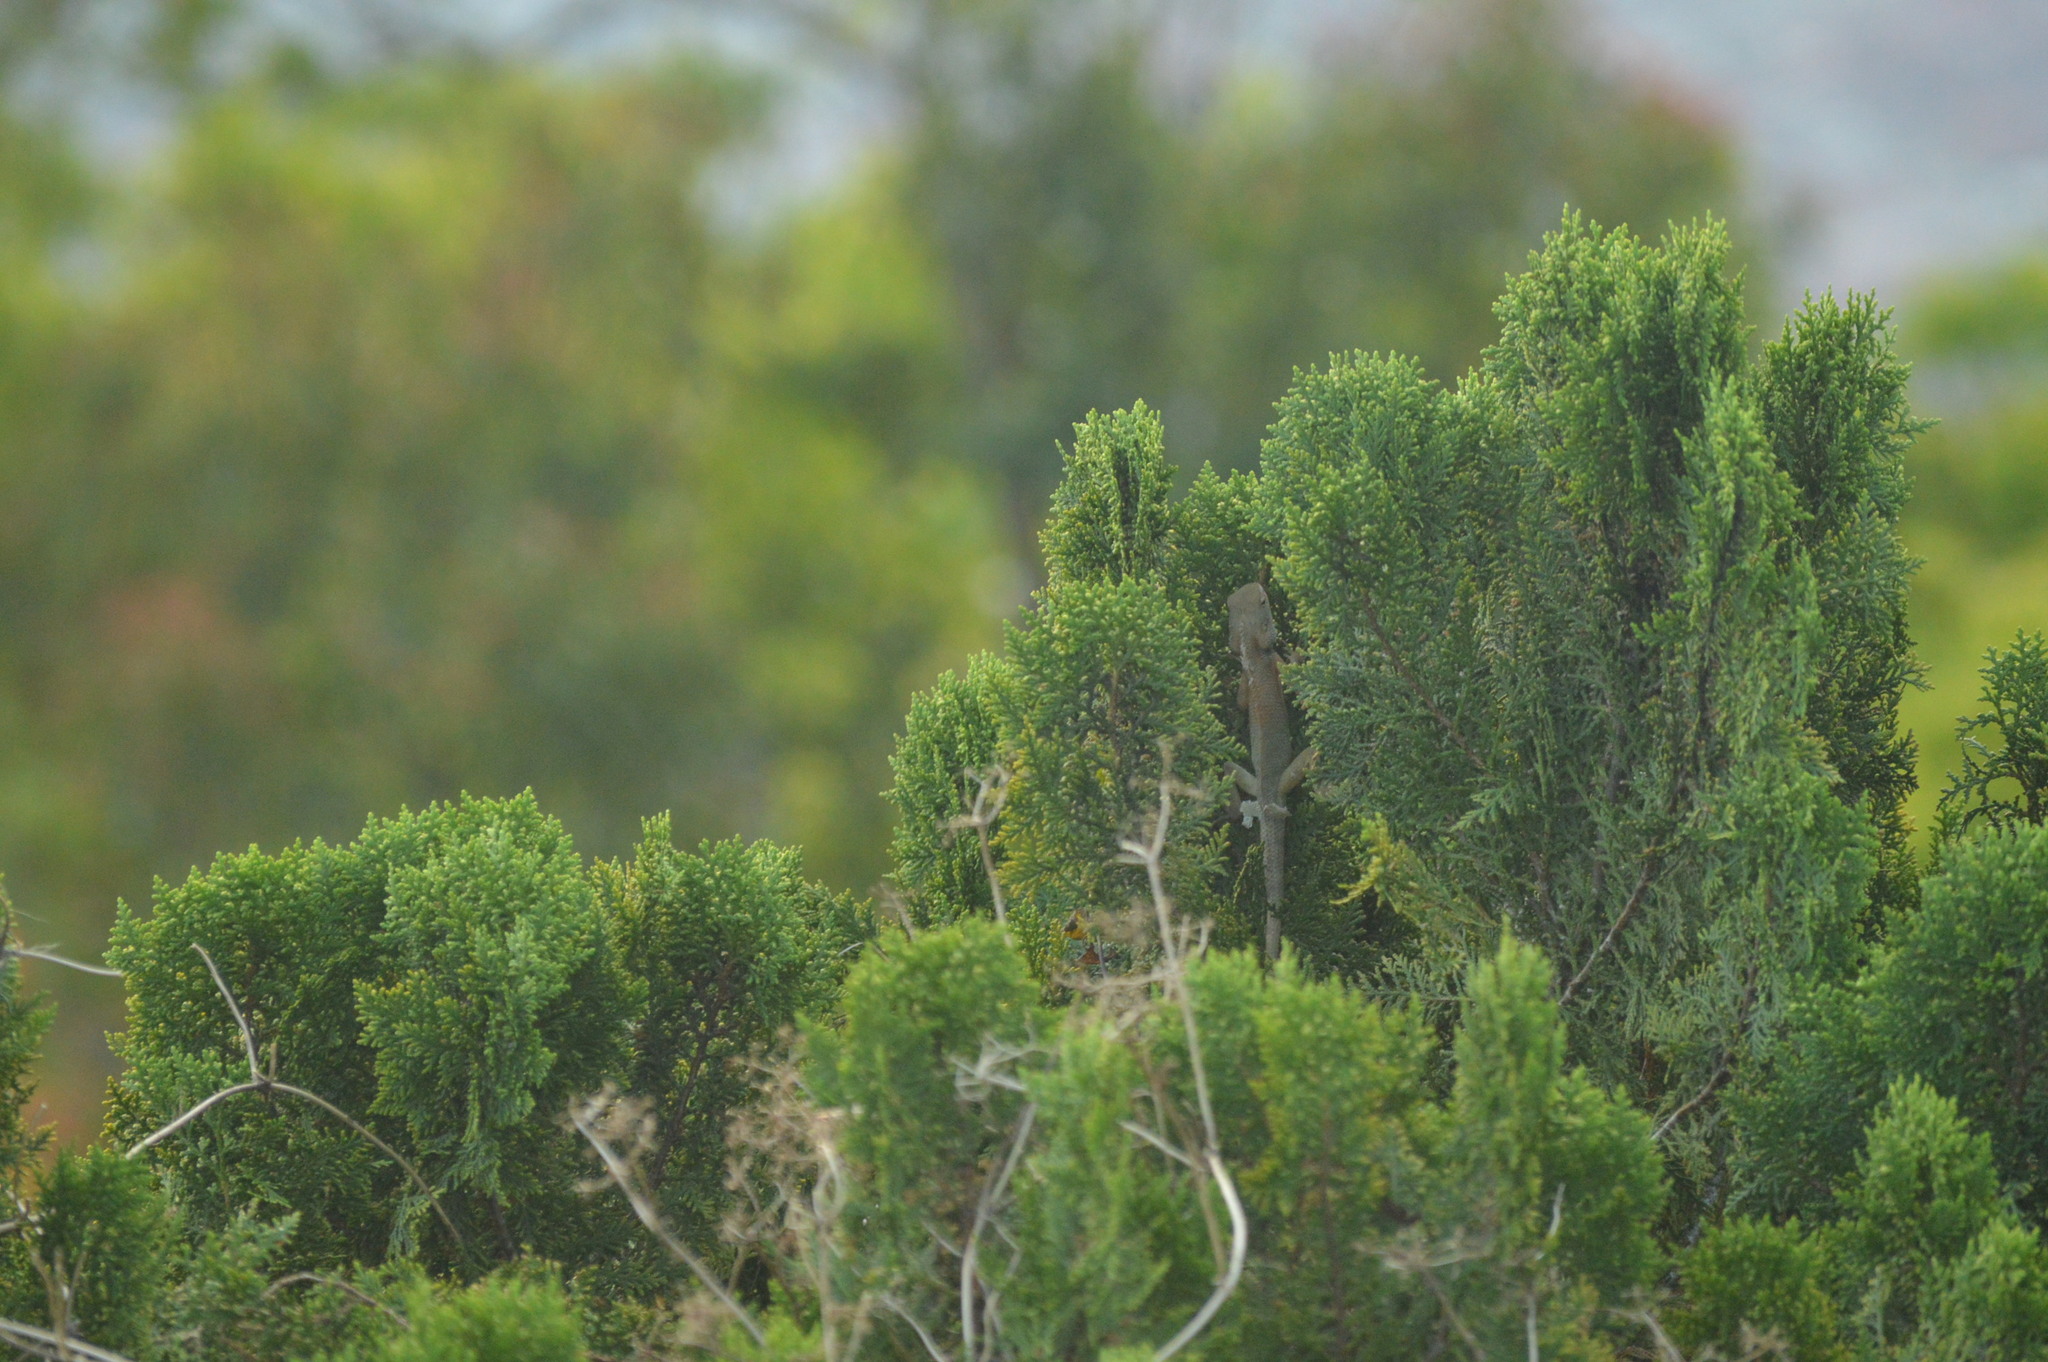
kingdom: Animalia
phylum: Chordata
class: Squamata
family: Agamidae
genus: Calotes
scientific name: Calotes versicolor
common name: Oriental garden lizard
